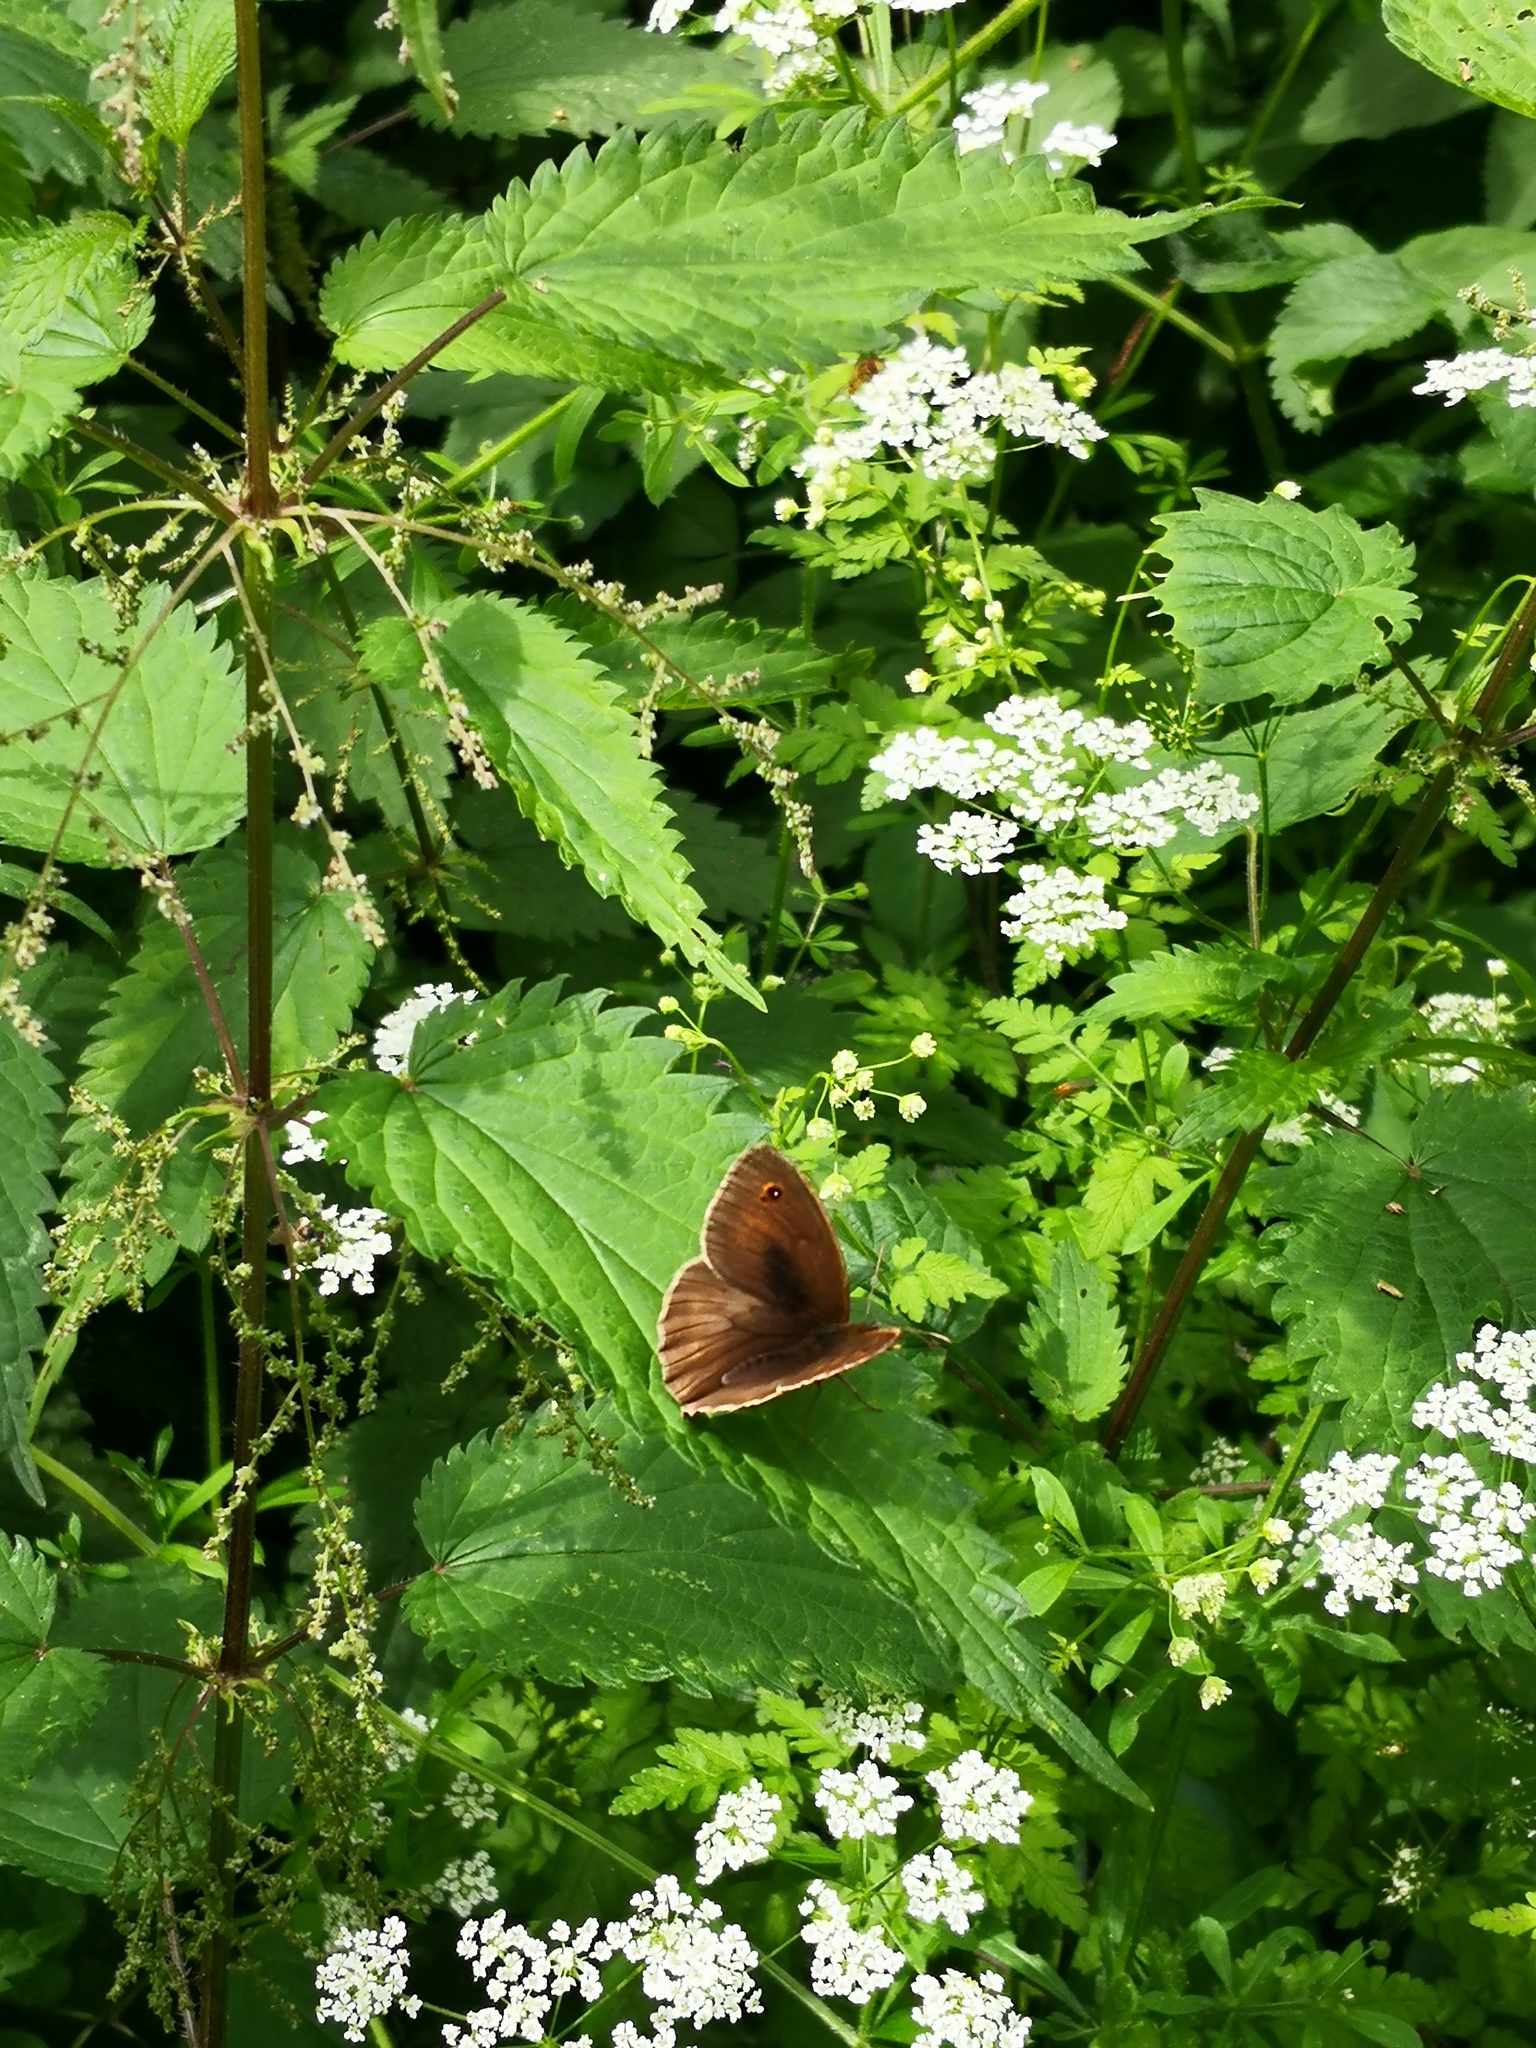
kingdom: Animalia
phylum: Arthropoda
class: Insecta
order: Lepidoptera
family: Nymphalidae
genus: Maniola
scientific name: Maniola jurtina
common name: Meadow brown
